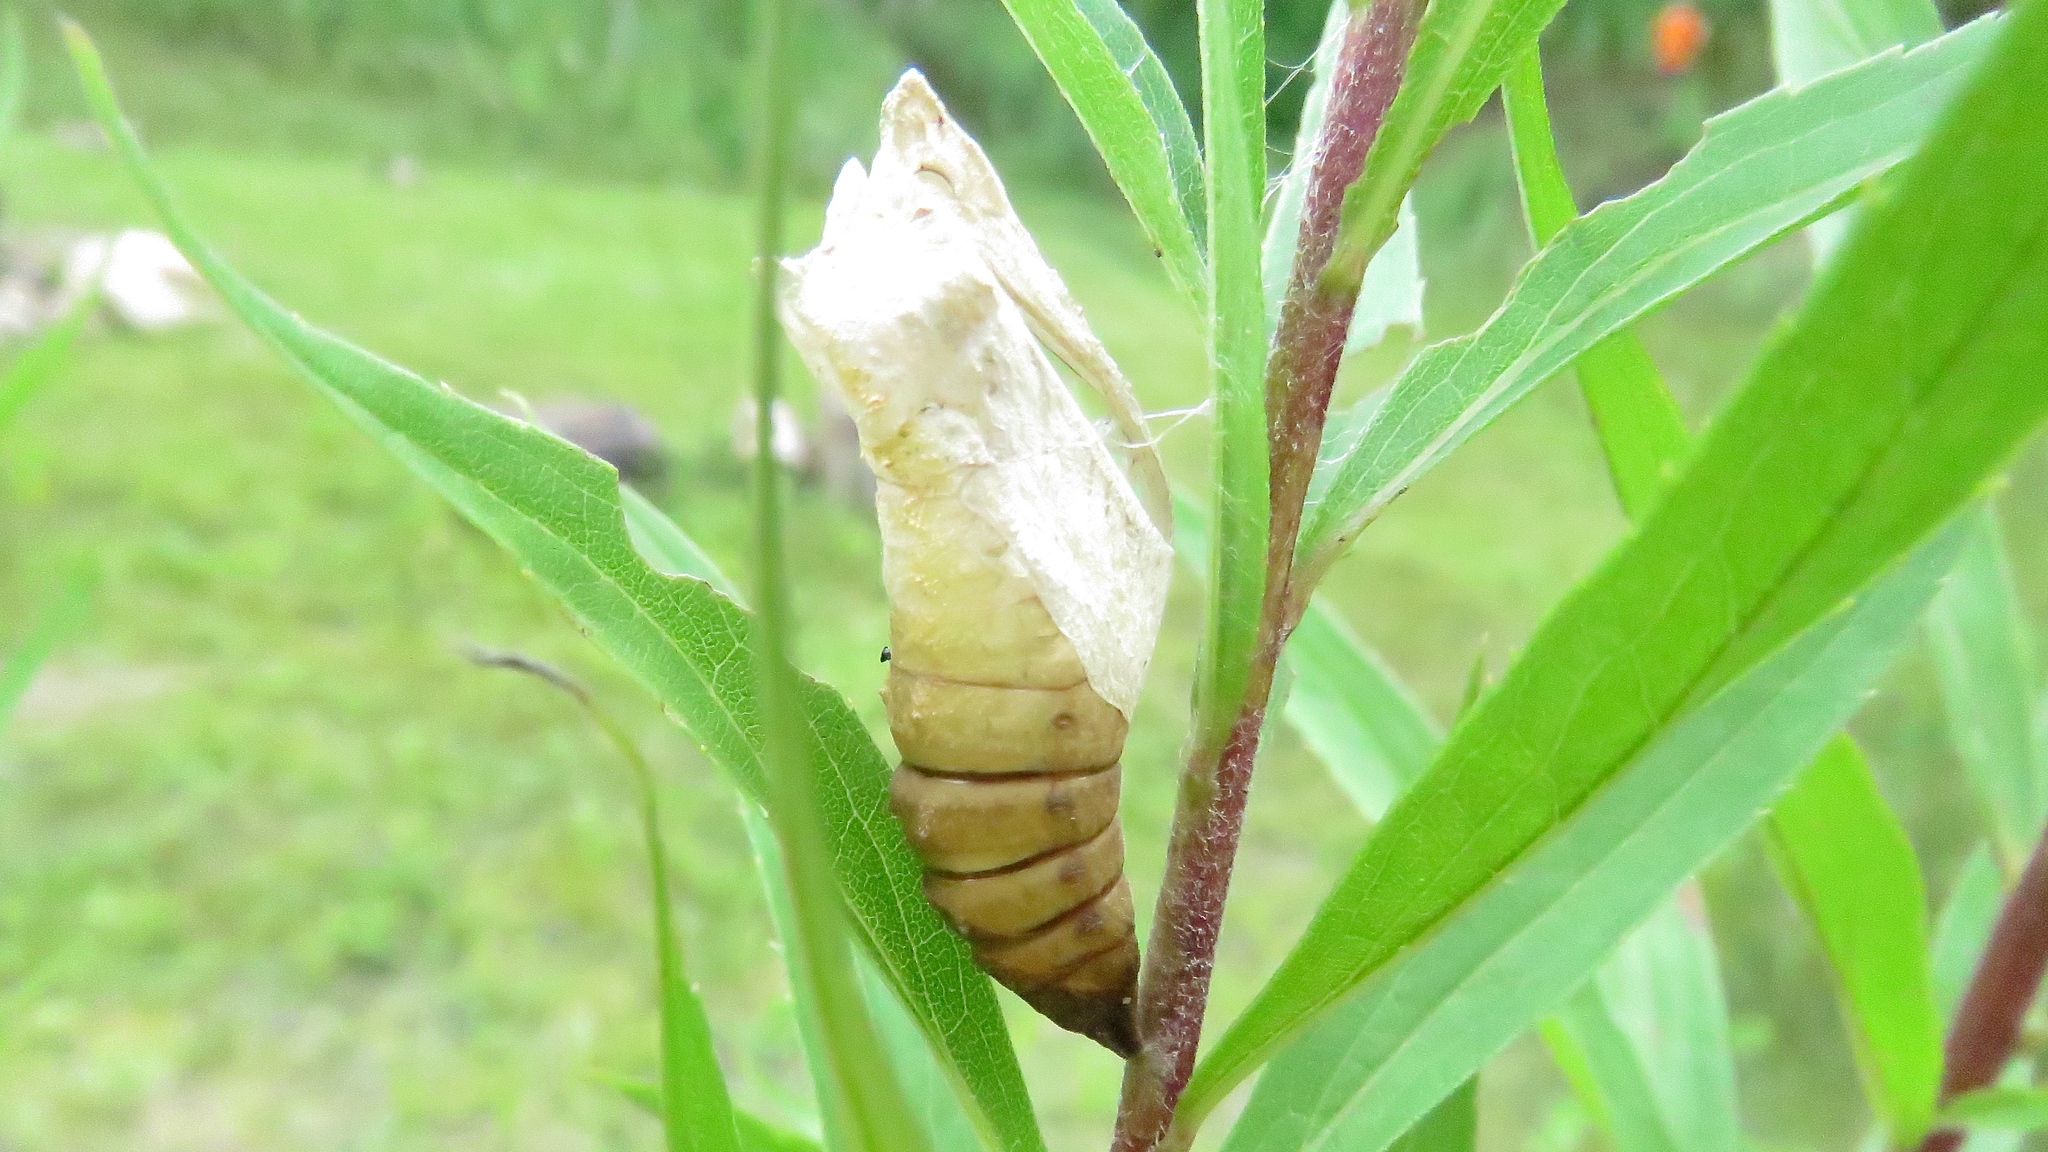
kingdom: Animalia
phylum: Arthropoda
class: Insecta
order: Lepidoptera
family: Papilionidae
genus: Papilio
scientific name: Papilio polyxenes
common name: Black swallowtail
